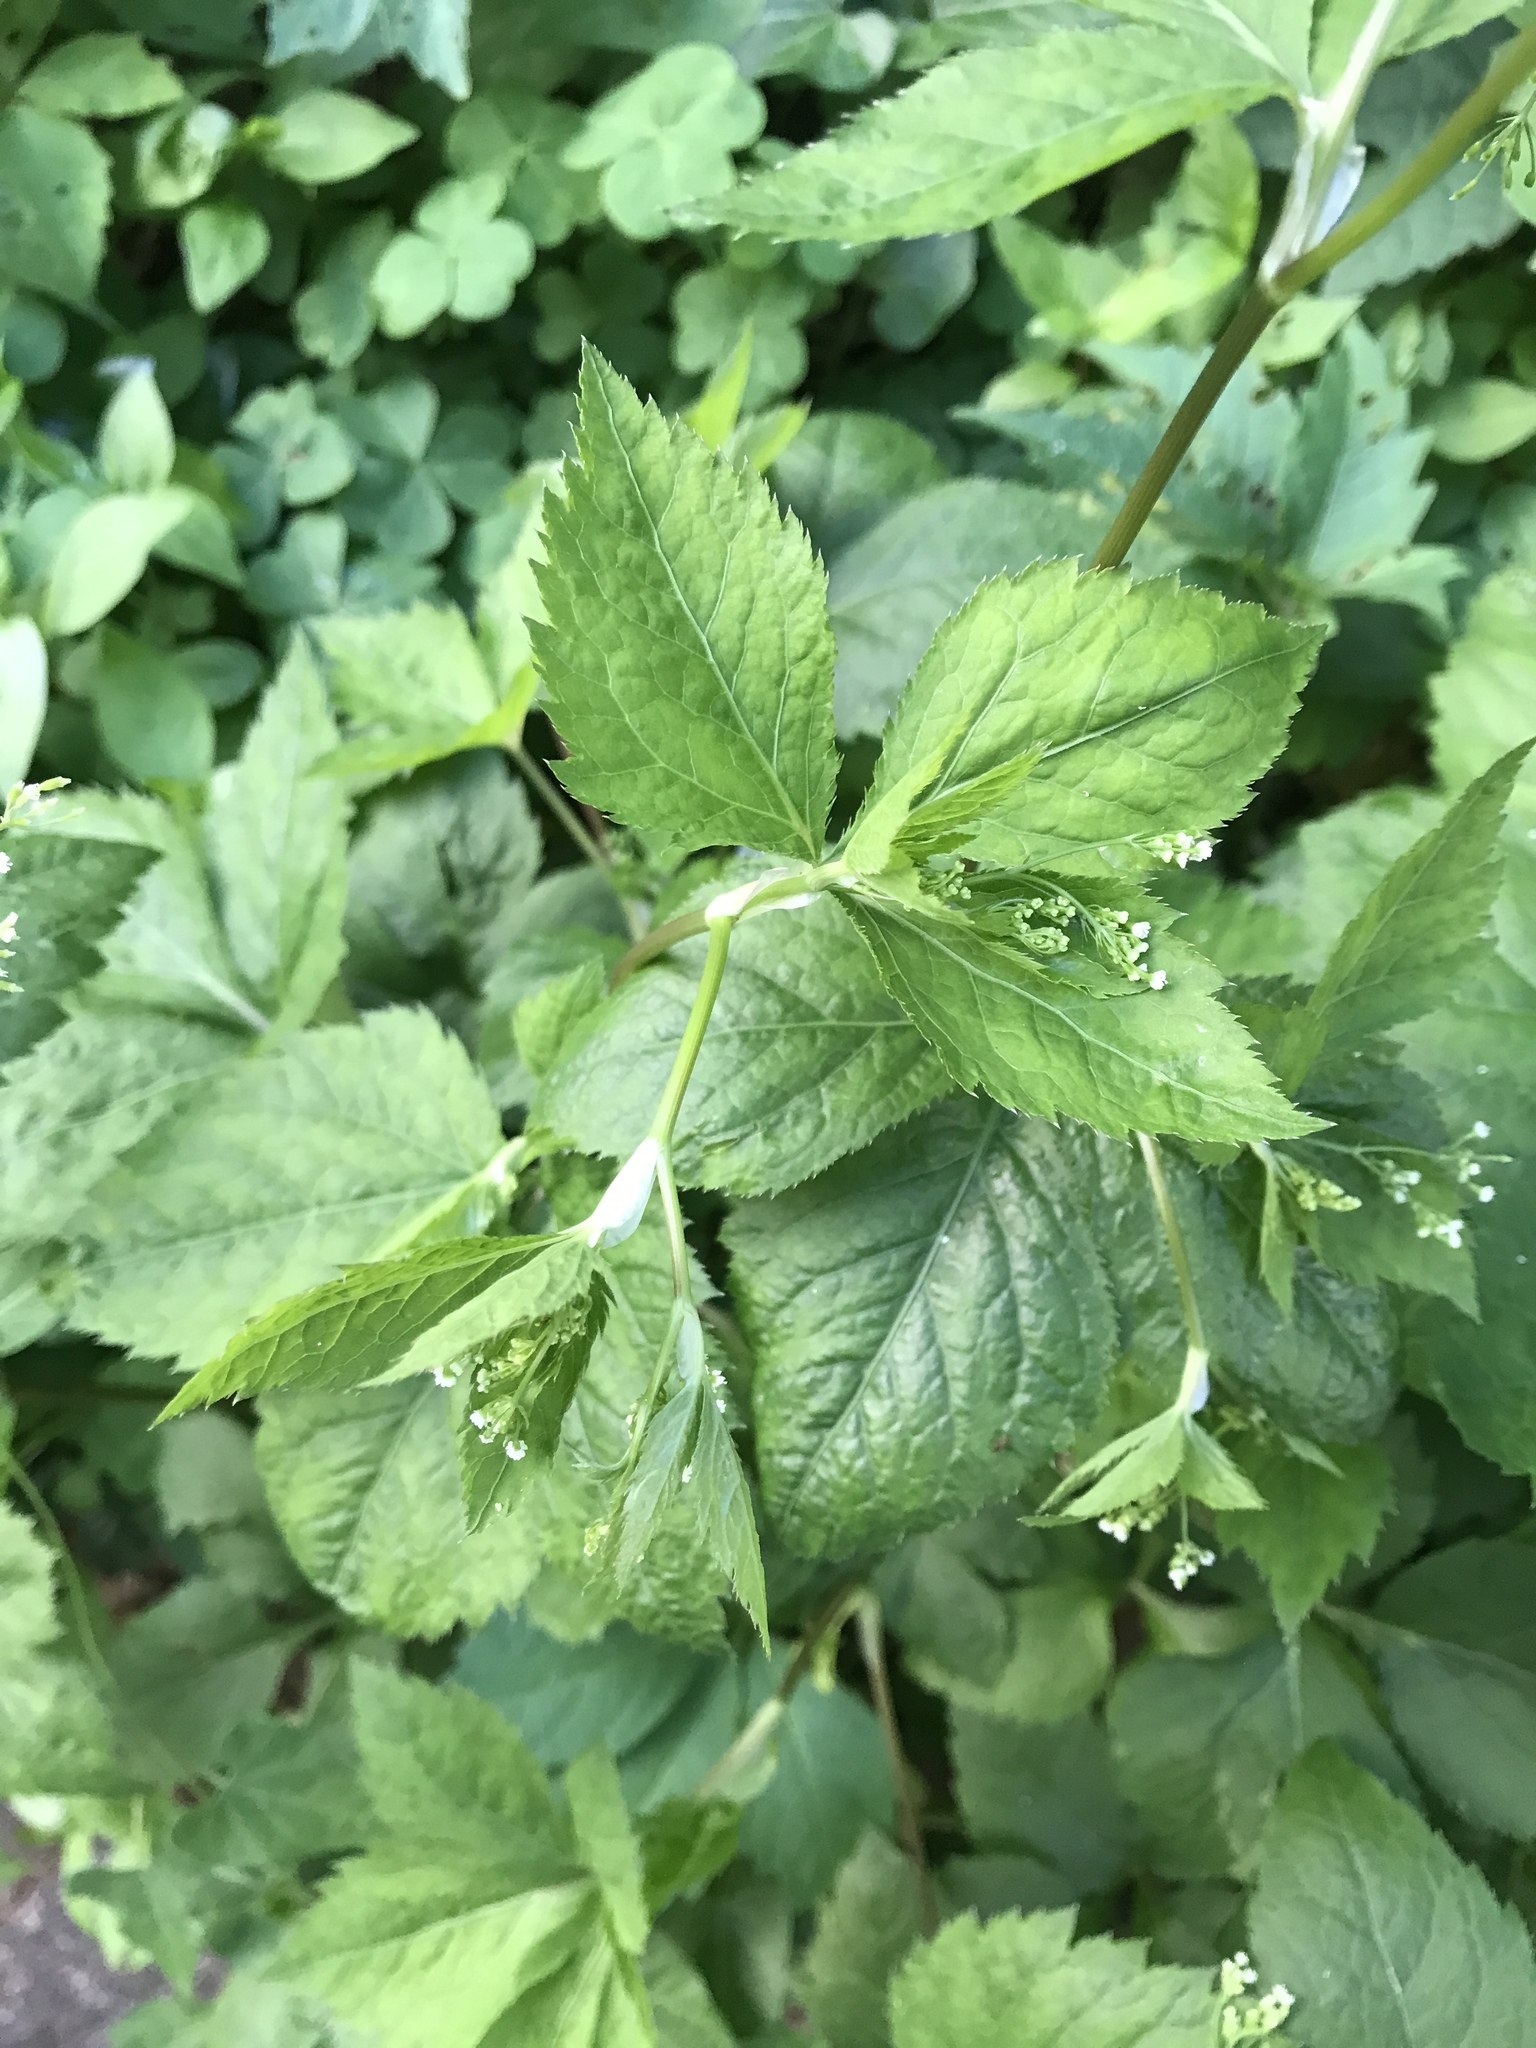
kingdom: Plantae
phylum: Tracheophyta
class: Magnoliopsida
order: Apiales
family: Apiaceae
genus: Cryptotaenia
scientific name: Cryptotaenia canadensis
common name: Honewort
